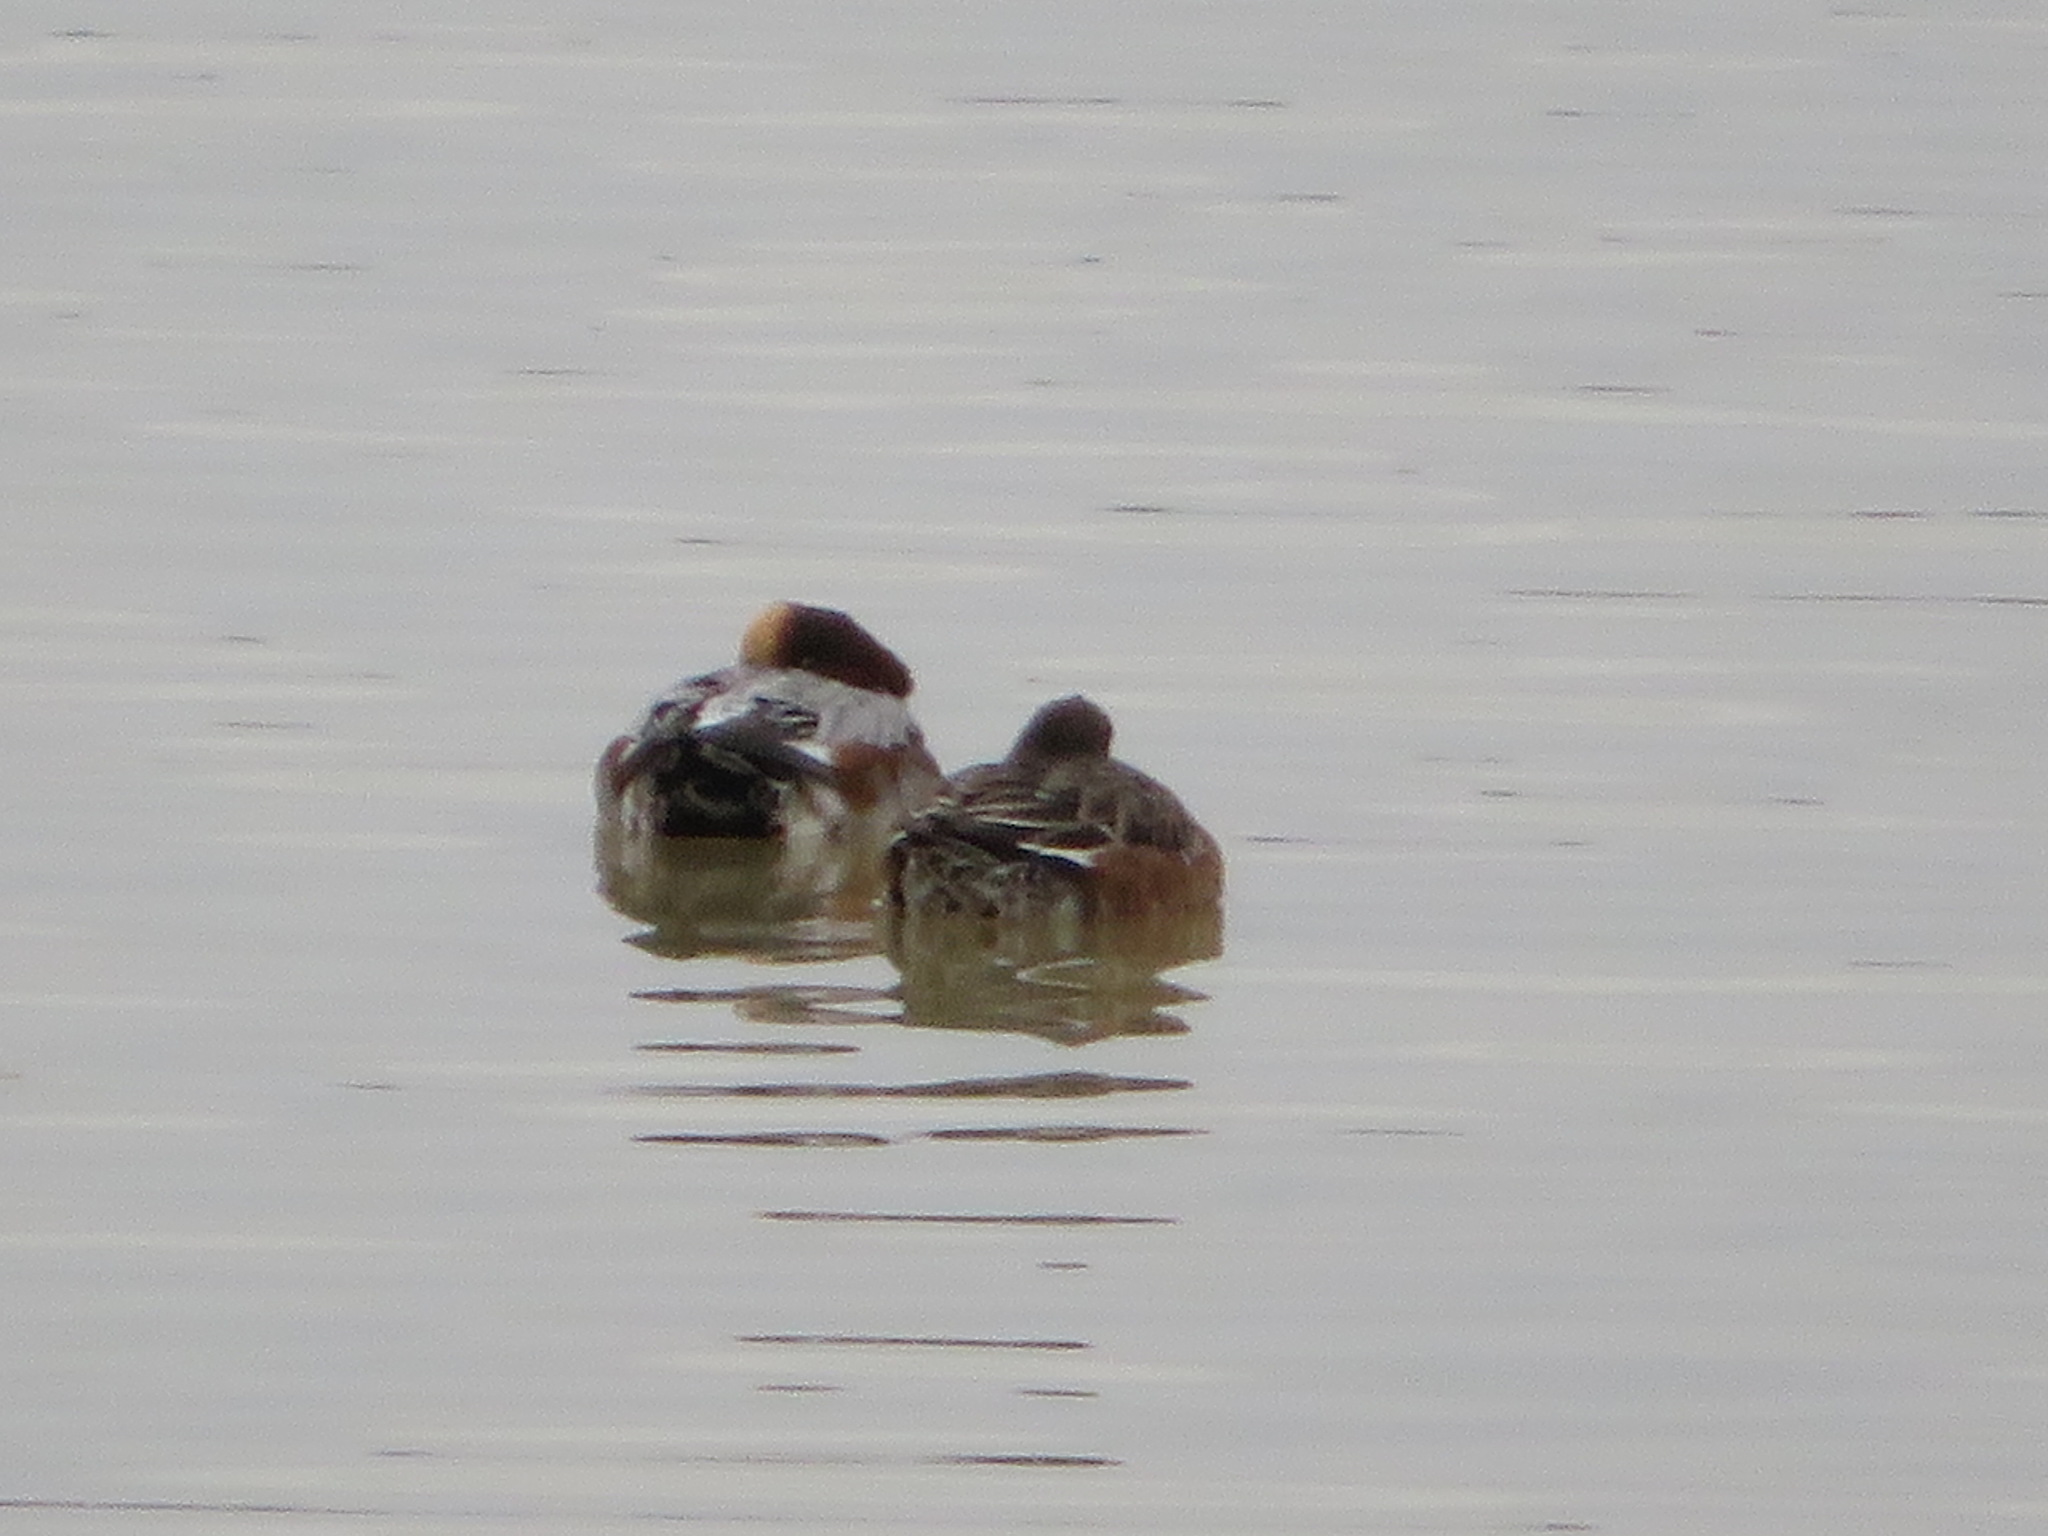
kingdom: Animalia
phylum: Chordata
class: Aves
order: Anseriformes
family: Anatidae
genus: Mareca
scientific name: Mareca penelope
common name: Eurasian wigeon
